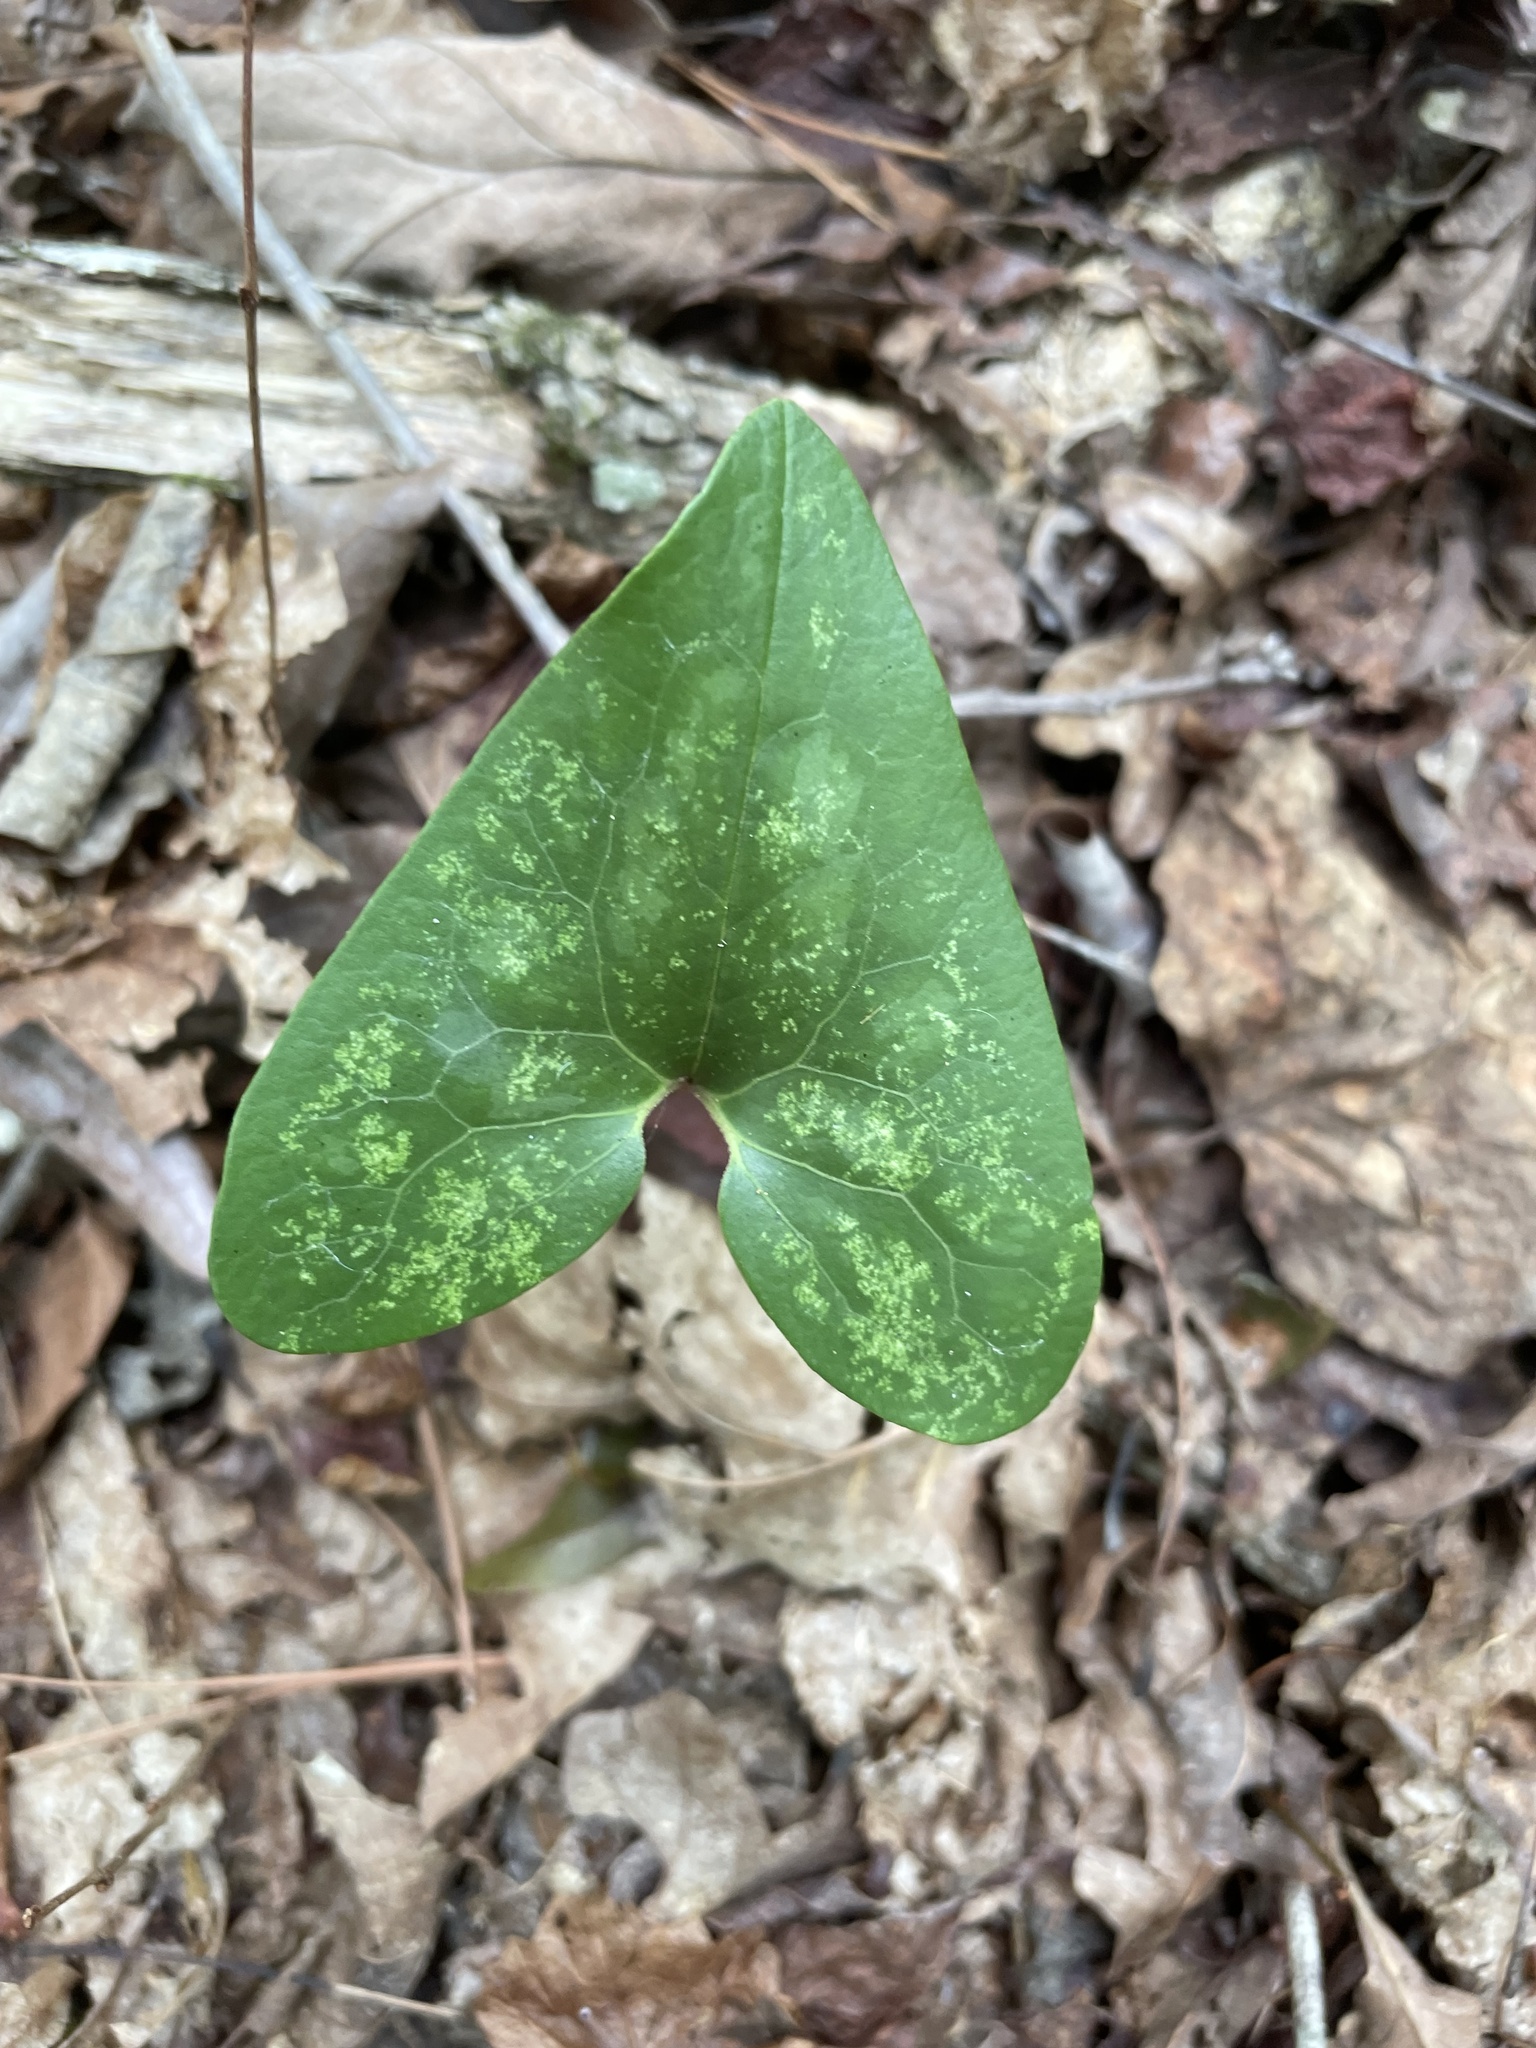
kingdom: Plantae
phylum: Tracheophyta
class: Magnoliopsida
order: Piperales
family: Aristolochiaceae
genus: Hexastylis
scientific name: Hexastylis arifolia
